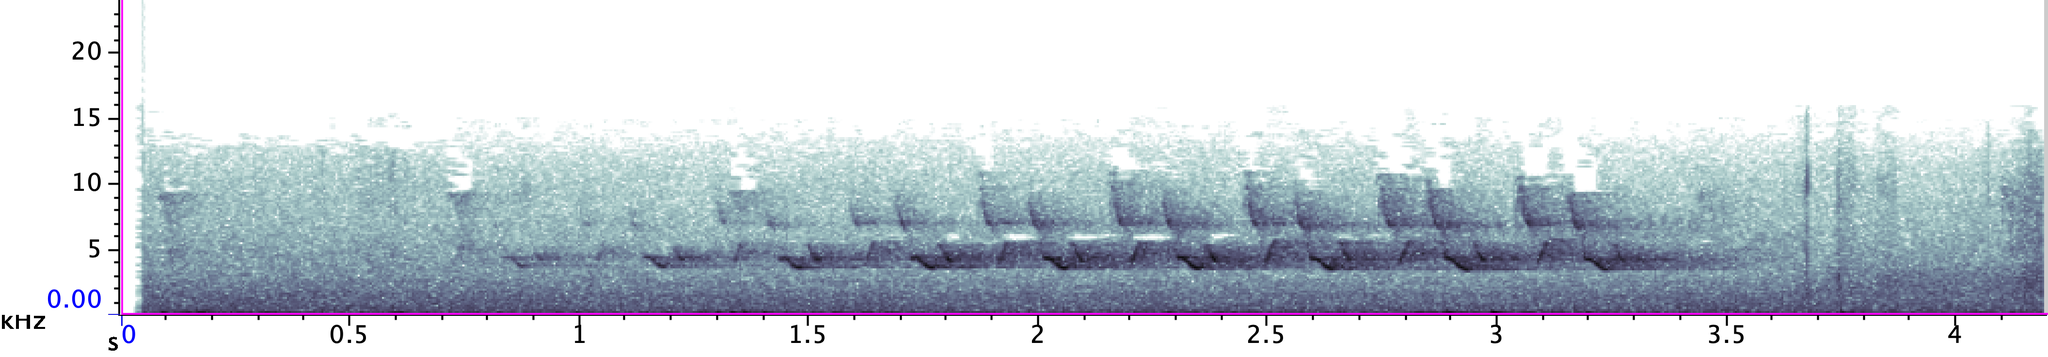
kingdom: Animalia
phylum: Chordata
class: Aves
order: Passeriformes
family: Parulidae
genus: Seiurus
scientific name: Seiurus aurocapilla
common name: Ovenbird
